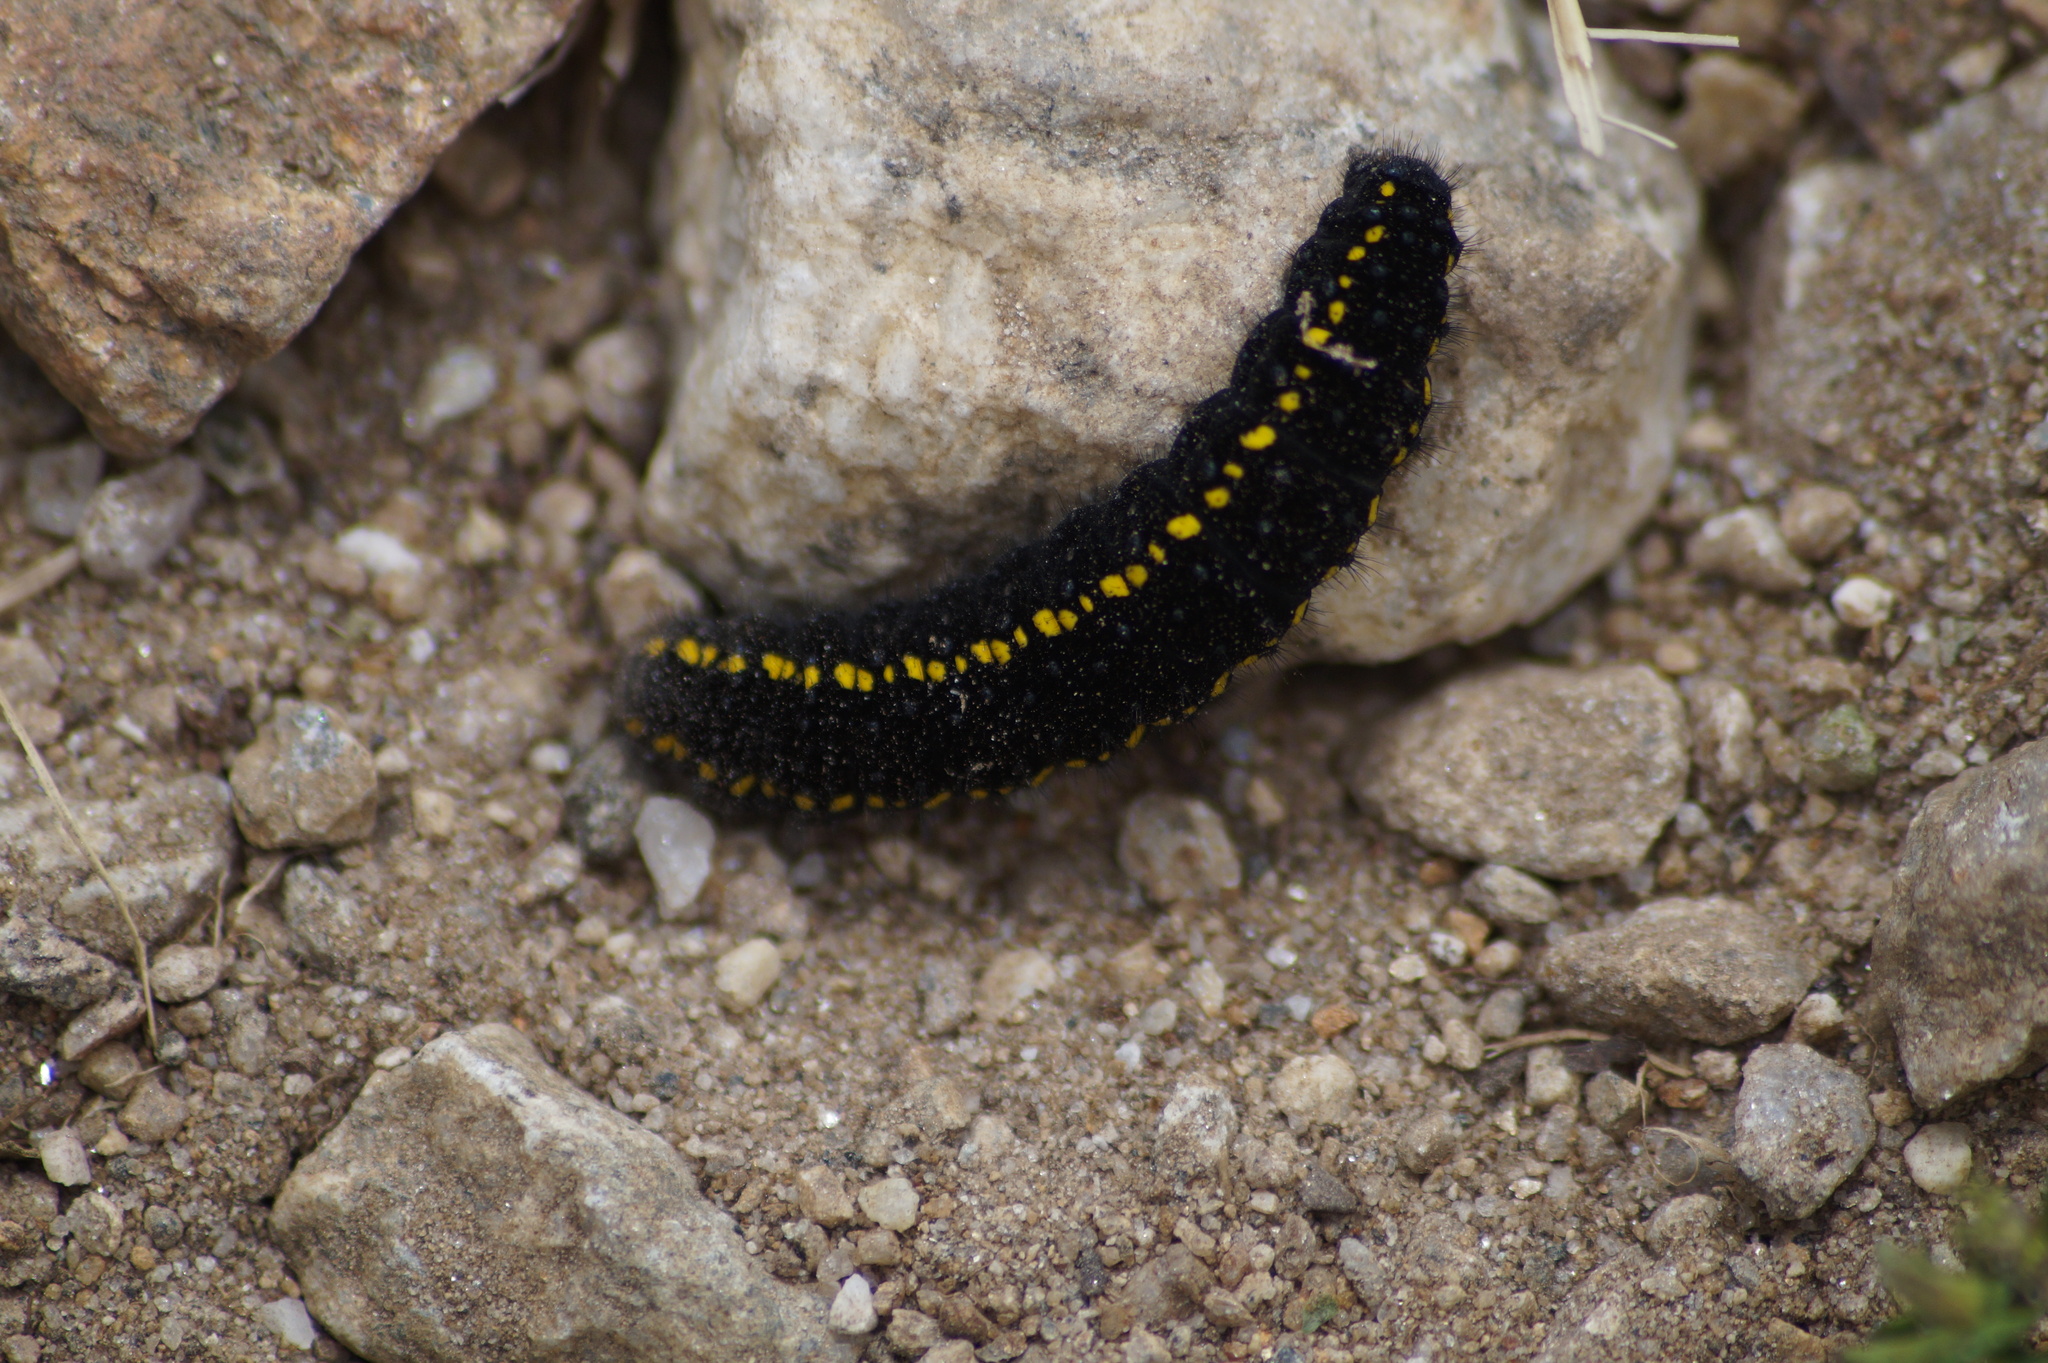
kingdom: Animalia
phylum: Arthropoda
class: Insecta
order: Lepidoptera
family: Papilionidae
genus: Parnassius
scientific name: Parnassius apollo
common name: Apollo
